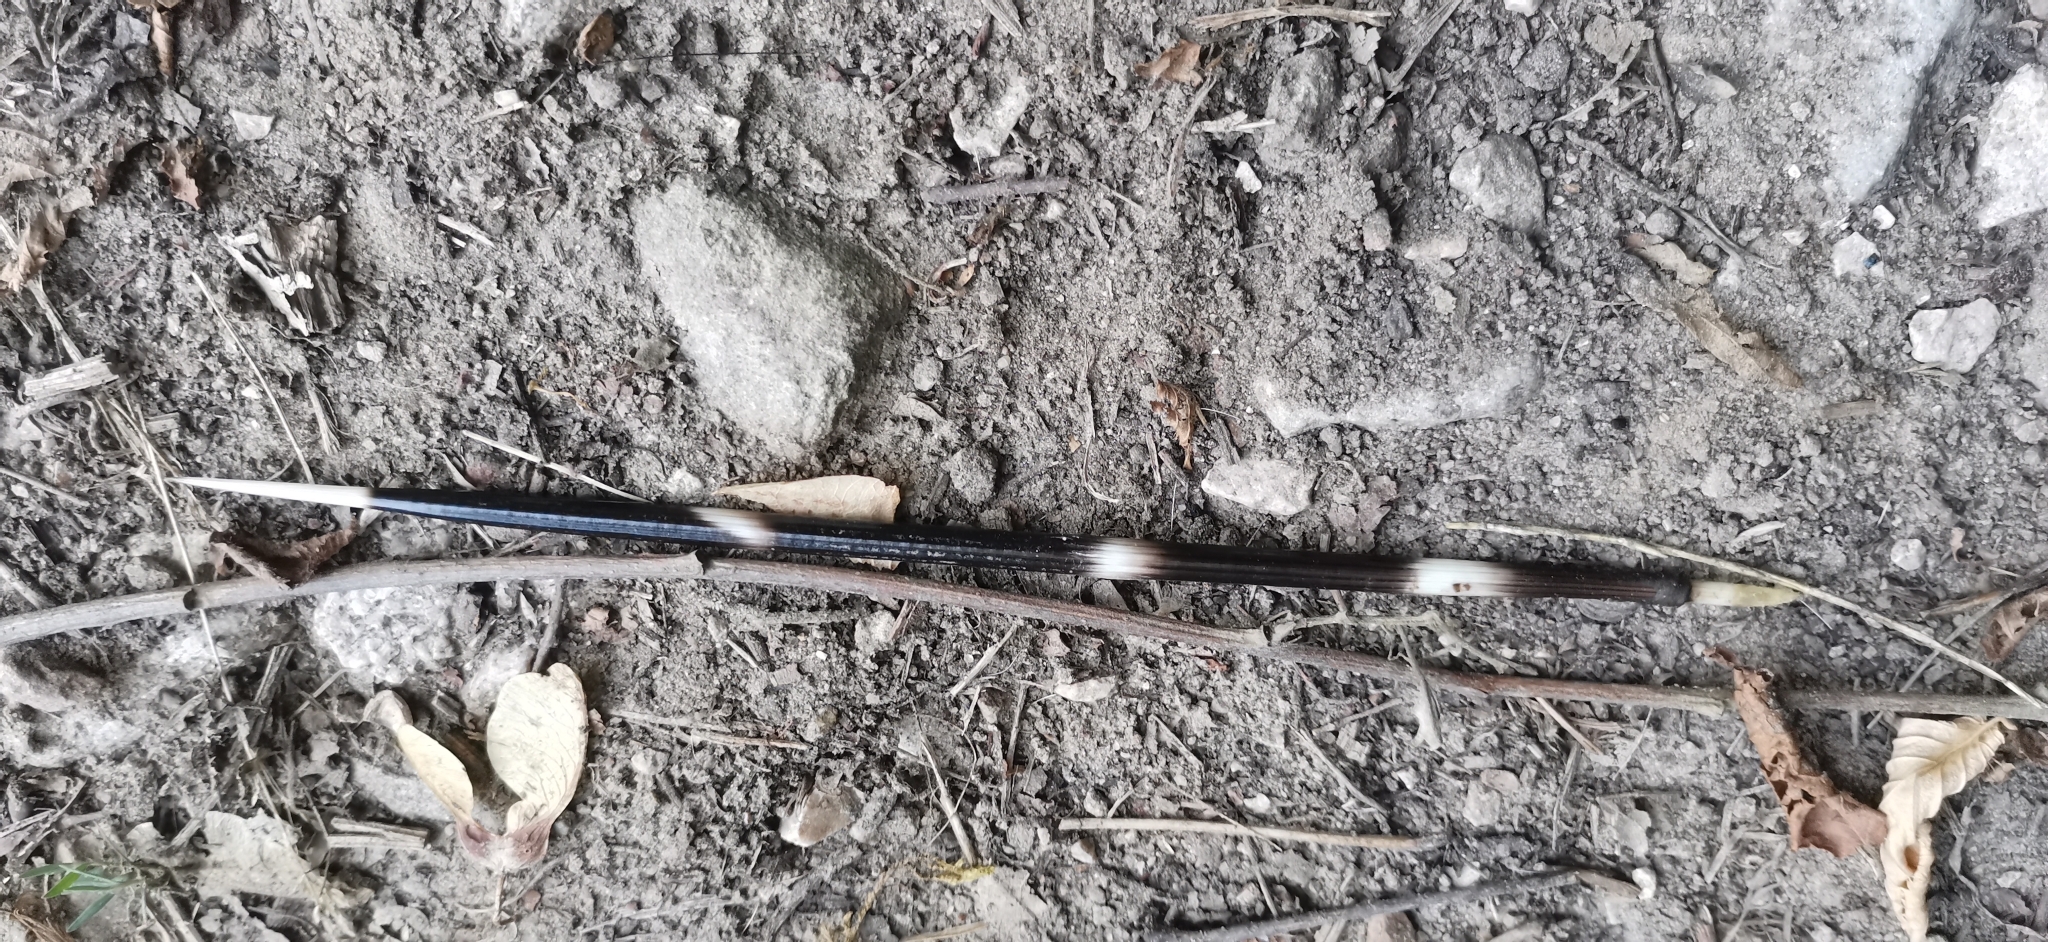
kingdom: Animalia
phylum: Chordata
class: Mammalia
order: Rodentia
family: Hystricidae
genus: Hystrix
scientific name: Hystrix cristata
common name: Crested porcupine
